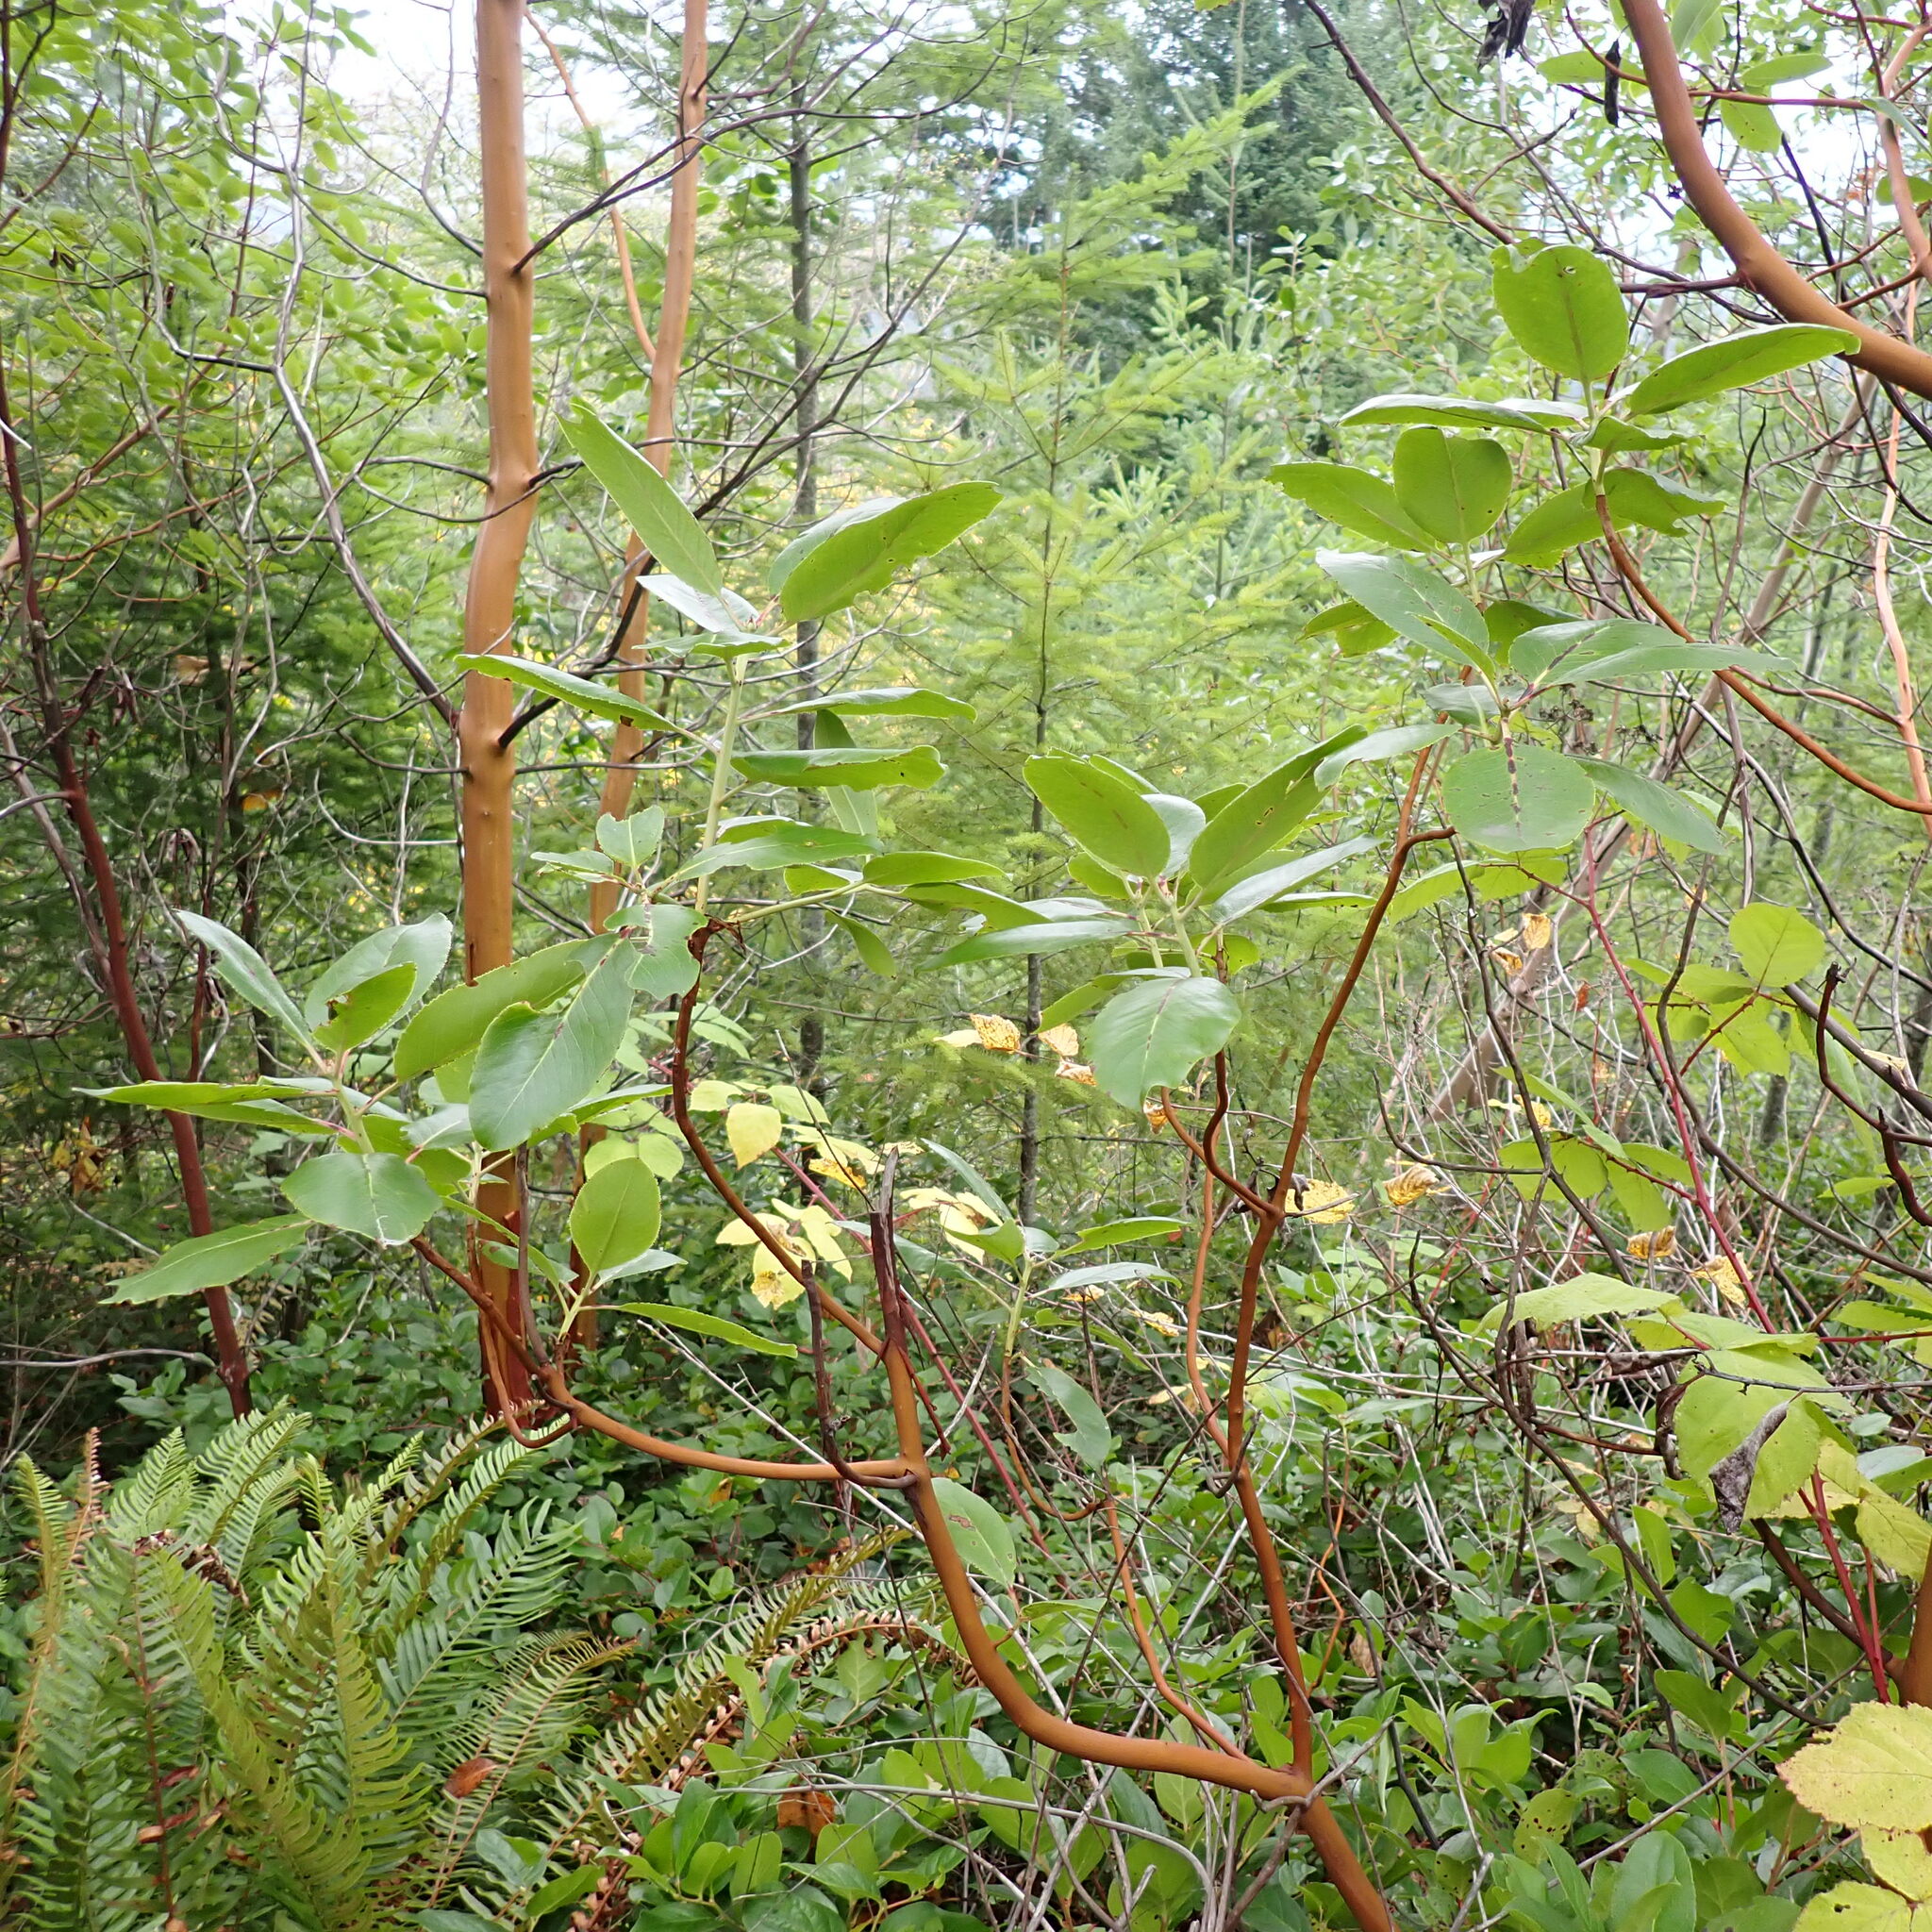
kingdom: Plantae
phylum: Tracheophyta
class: Magnoliopsida
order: Ericales
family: Ericaceae
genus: Arbutus
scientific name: Arbutus menziesii
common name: Pacific madrone
